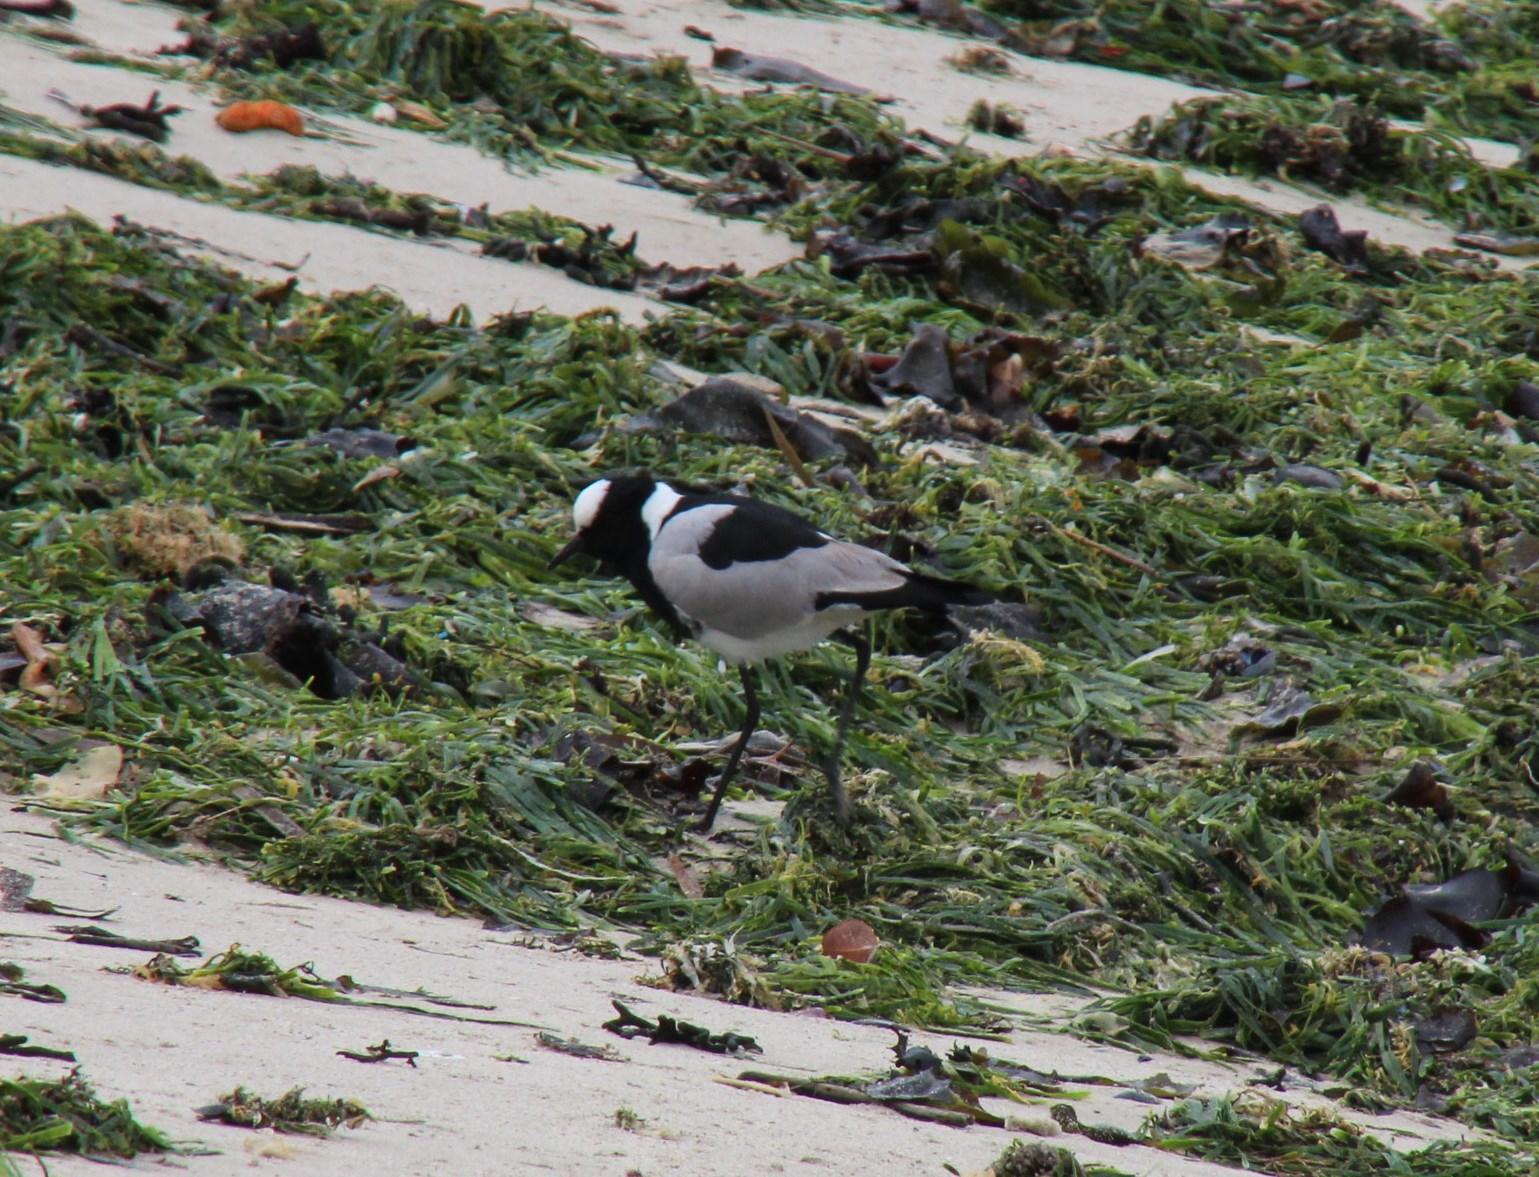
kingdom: Animalia
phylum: Chordata
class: Aves
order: Charadriiformes
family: Charadriidae
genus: Vanellus
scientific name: Vanellus armatus
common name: Blacksmith lapwing
